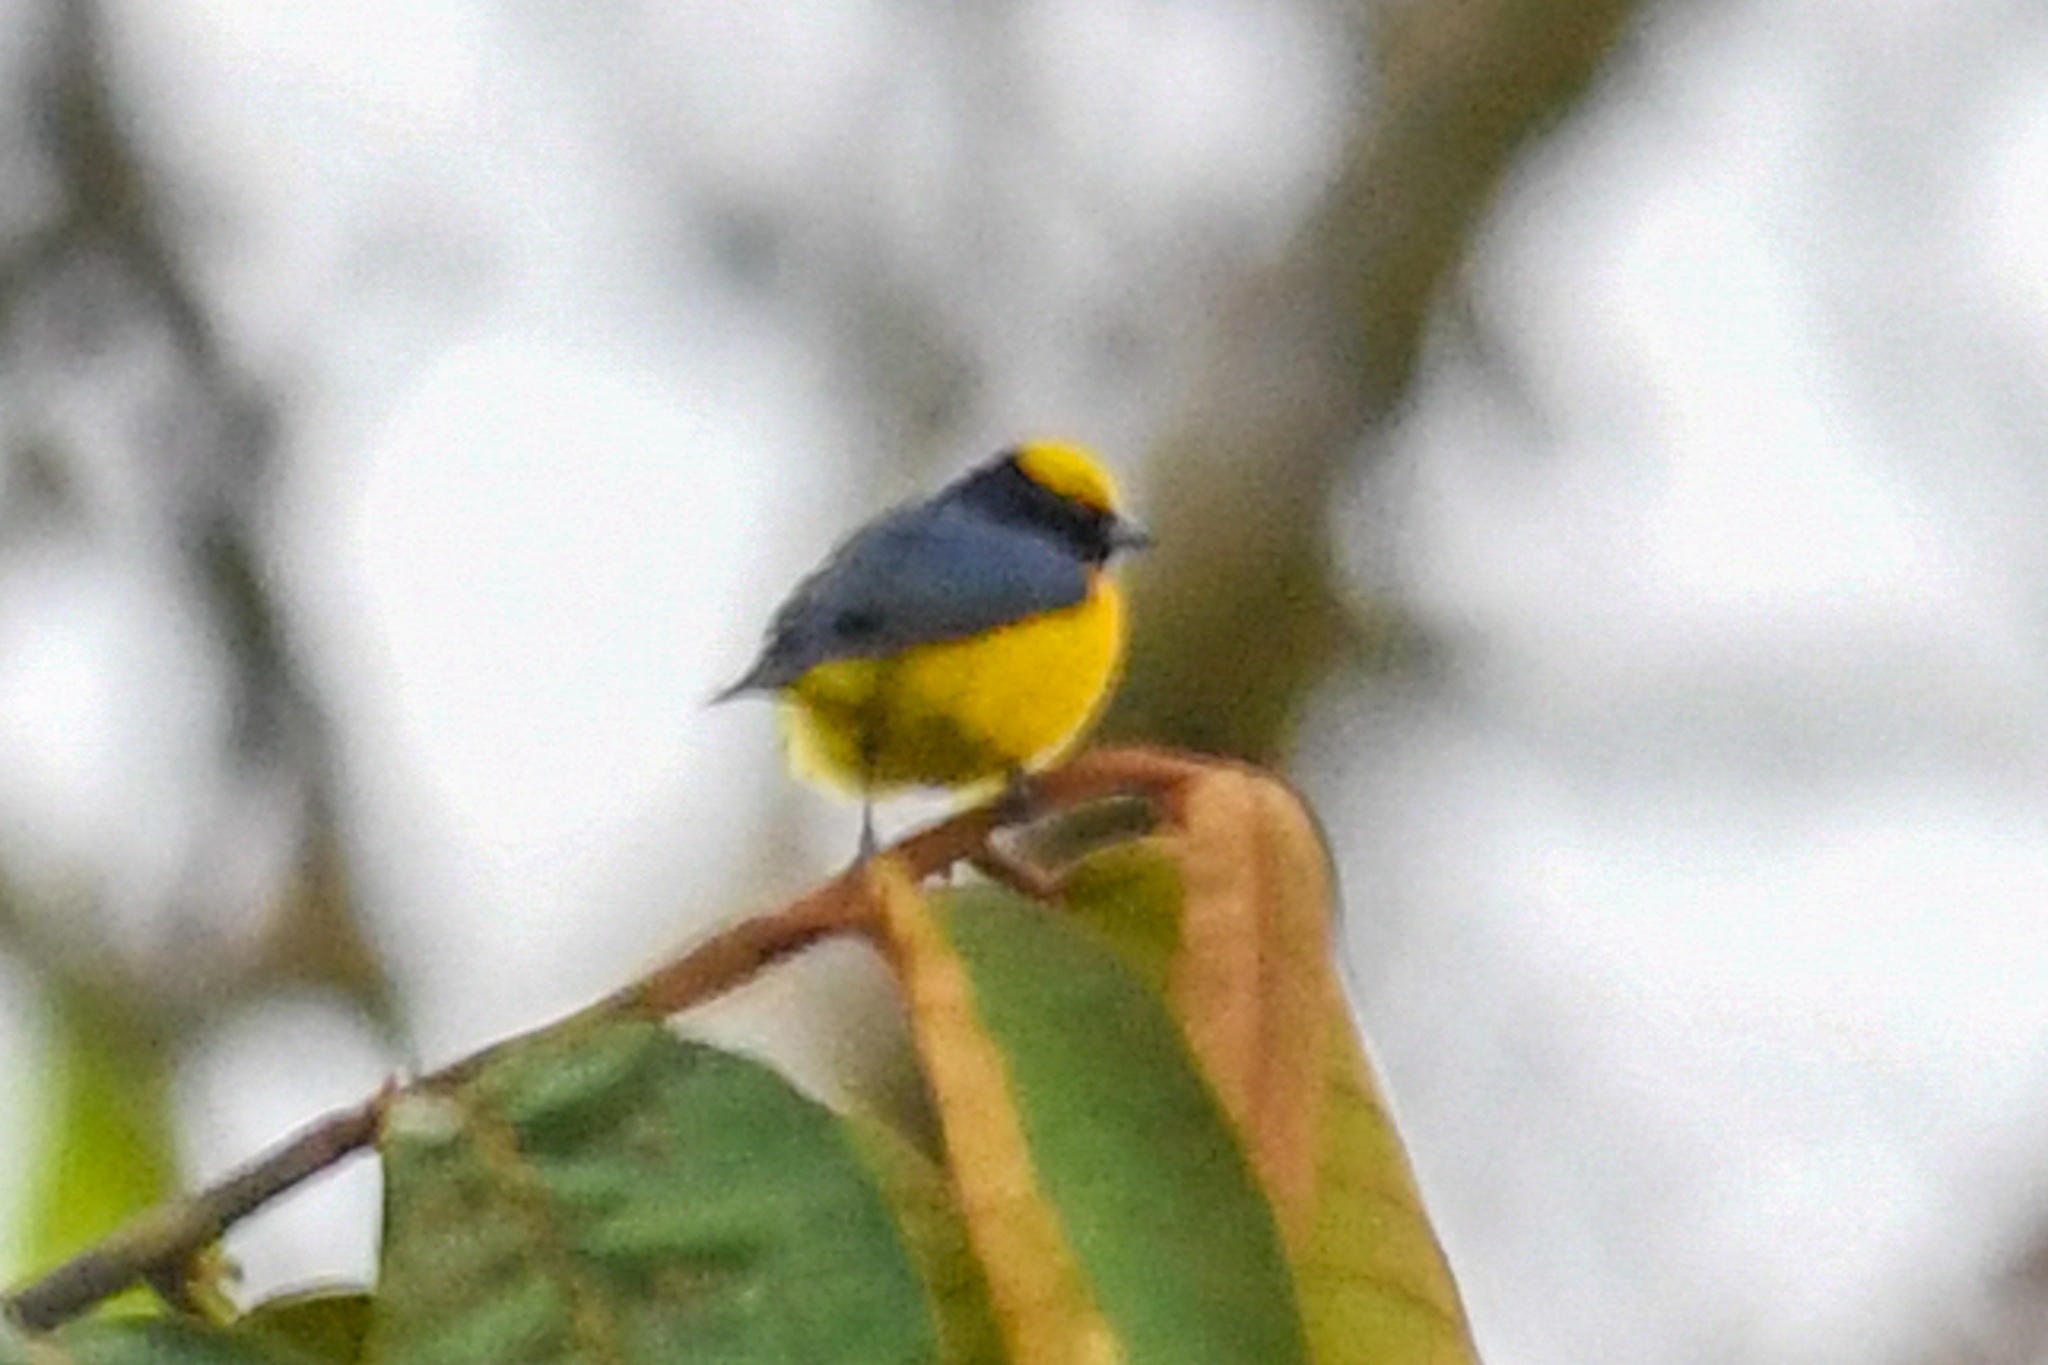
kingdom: Animalia
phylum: Chordata
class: Aves
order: Passeriformes
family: Fringillidae
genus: Euphonia
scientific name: Euphonia luteicapilla
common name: Yellow-crowned euphonia
